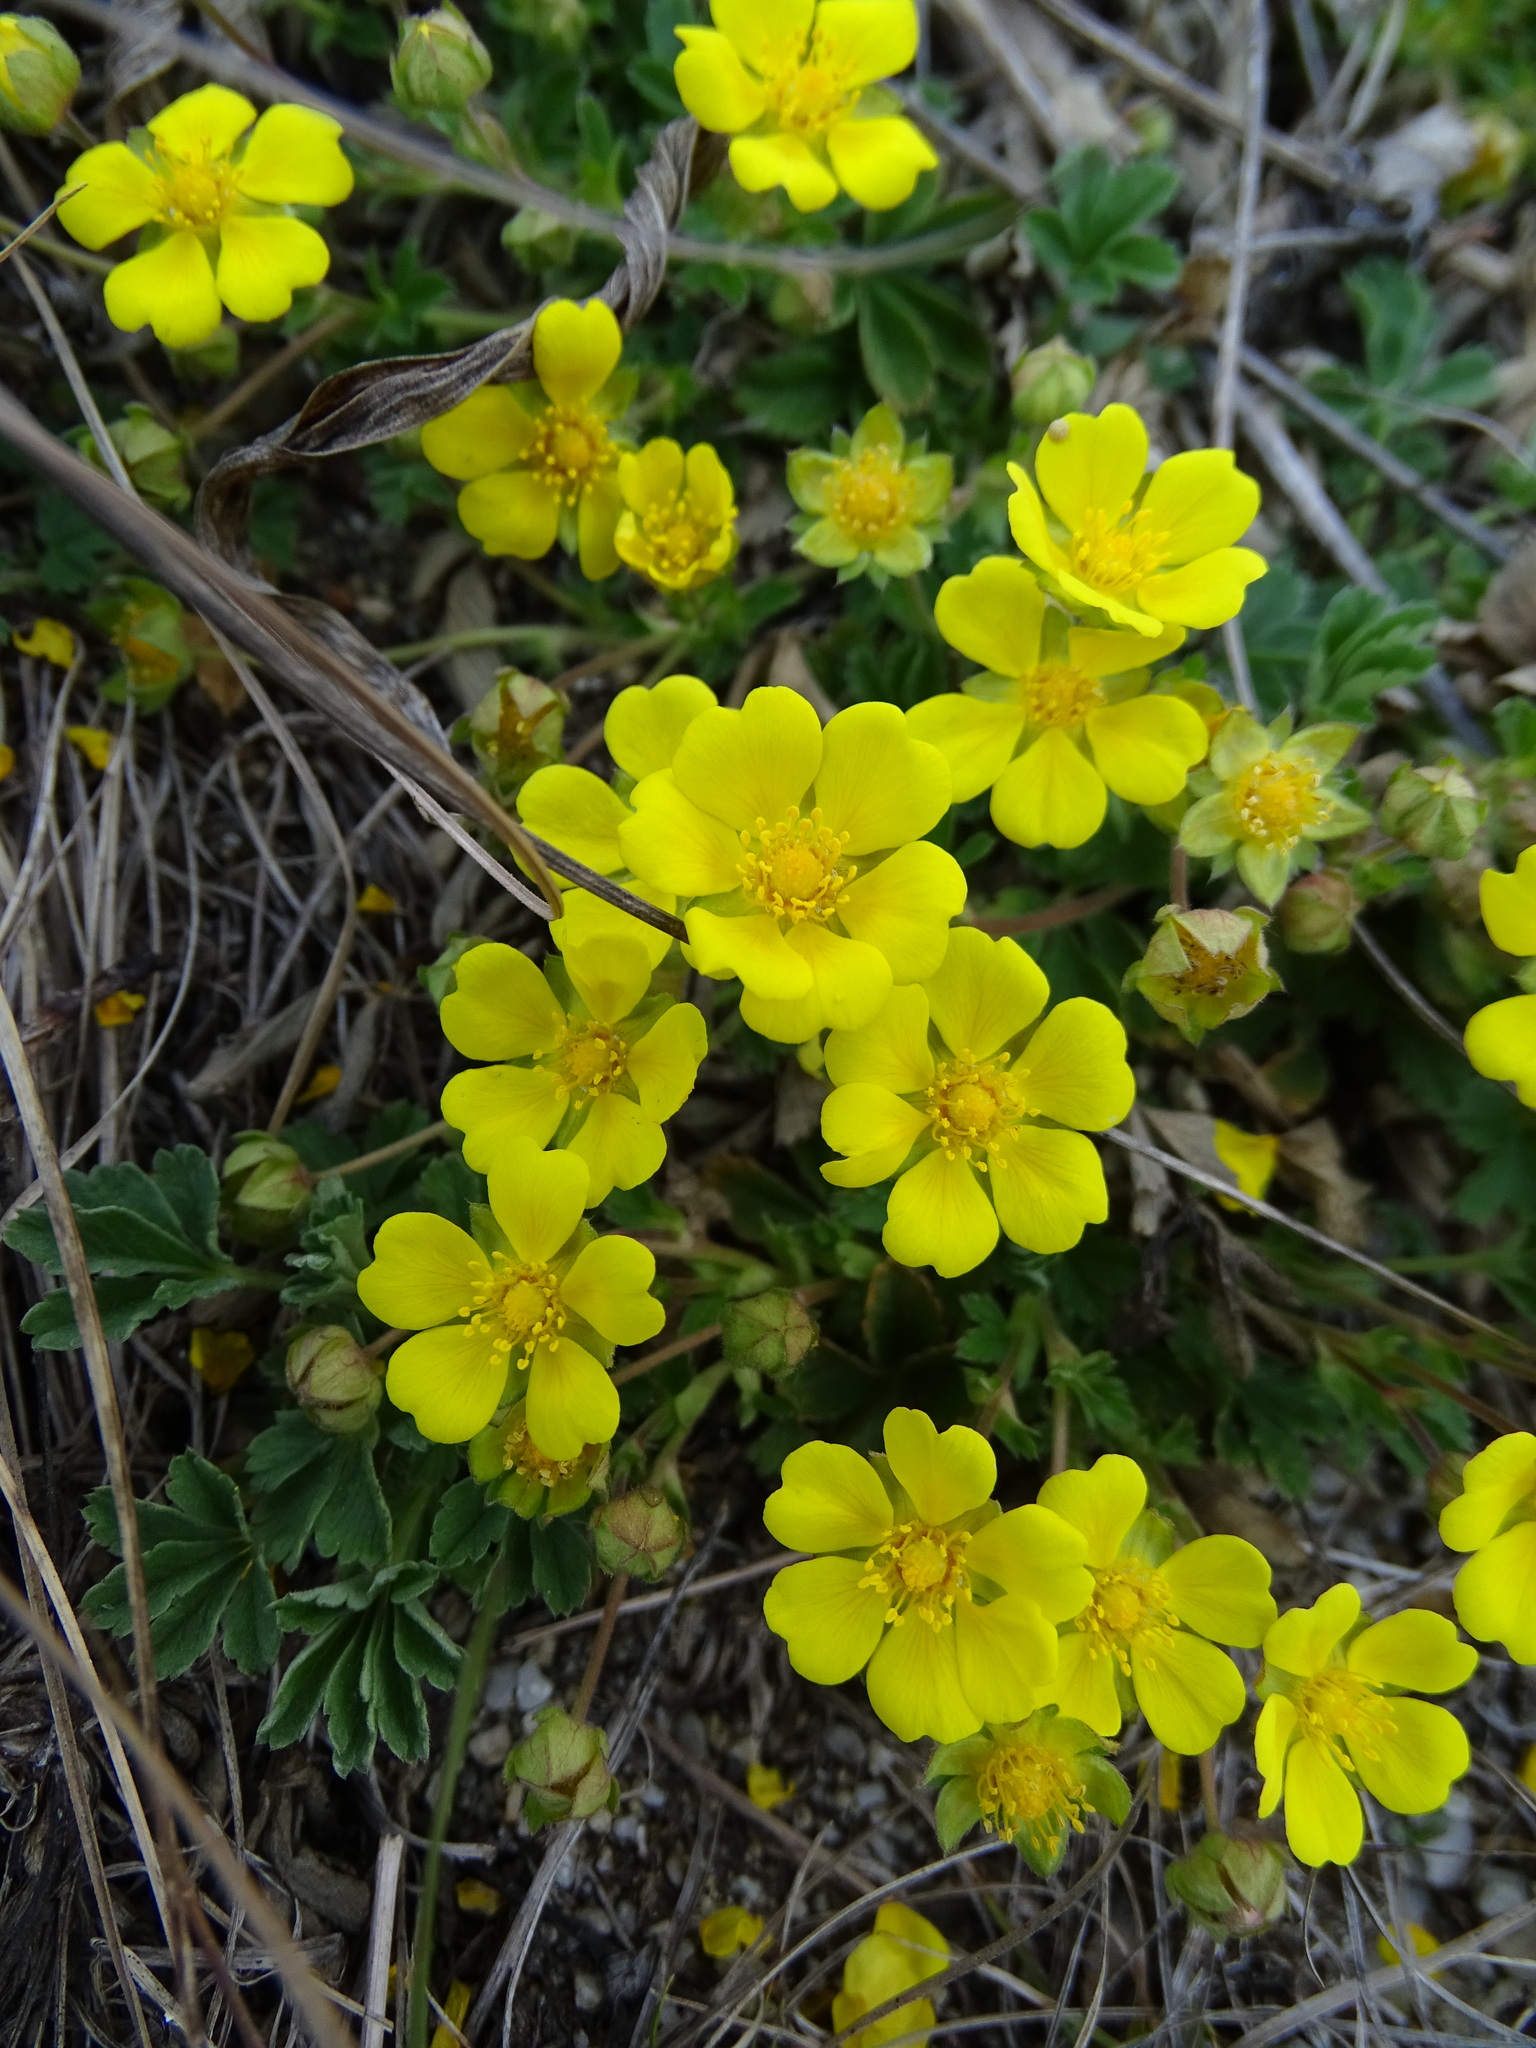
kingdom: Plantae
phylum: Tracheophyta
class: Magnoliopsida
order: Rosales
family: Rosaceae
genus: Potentilla
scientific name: Potentilla incana
